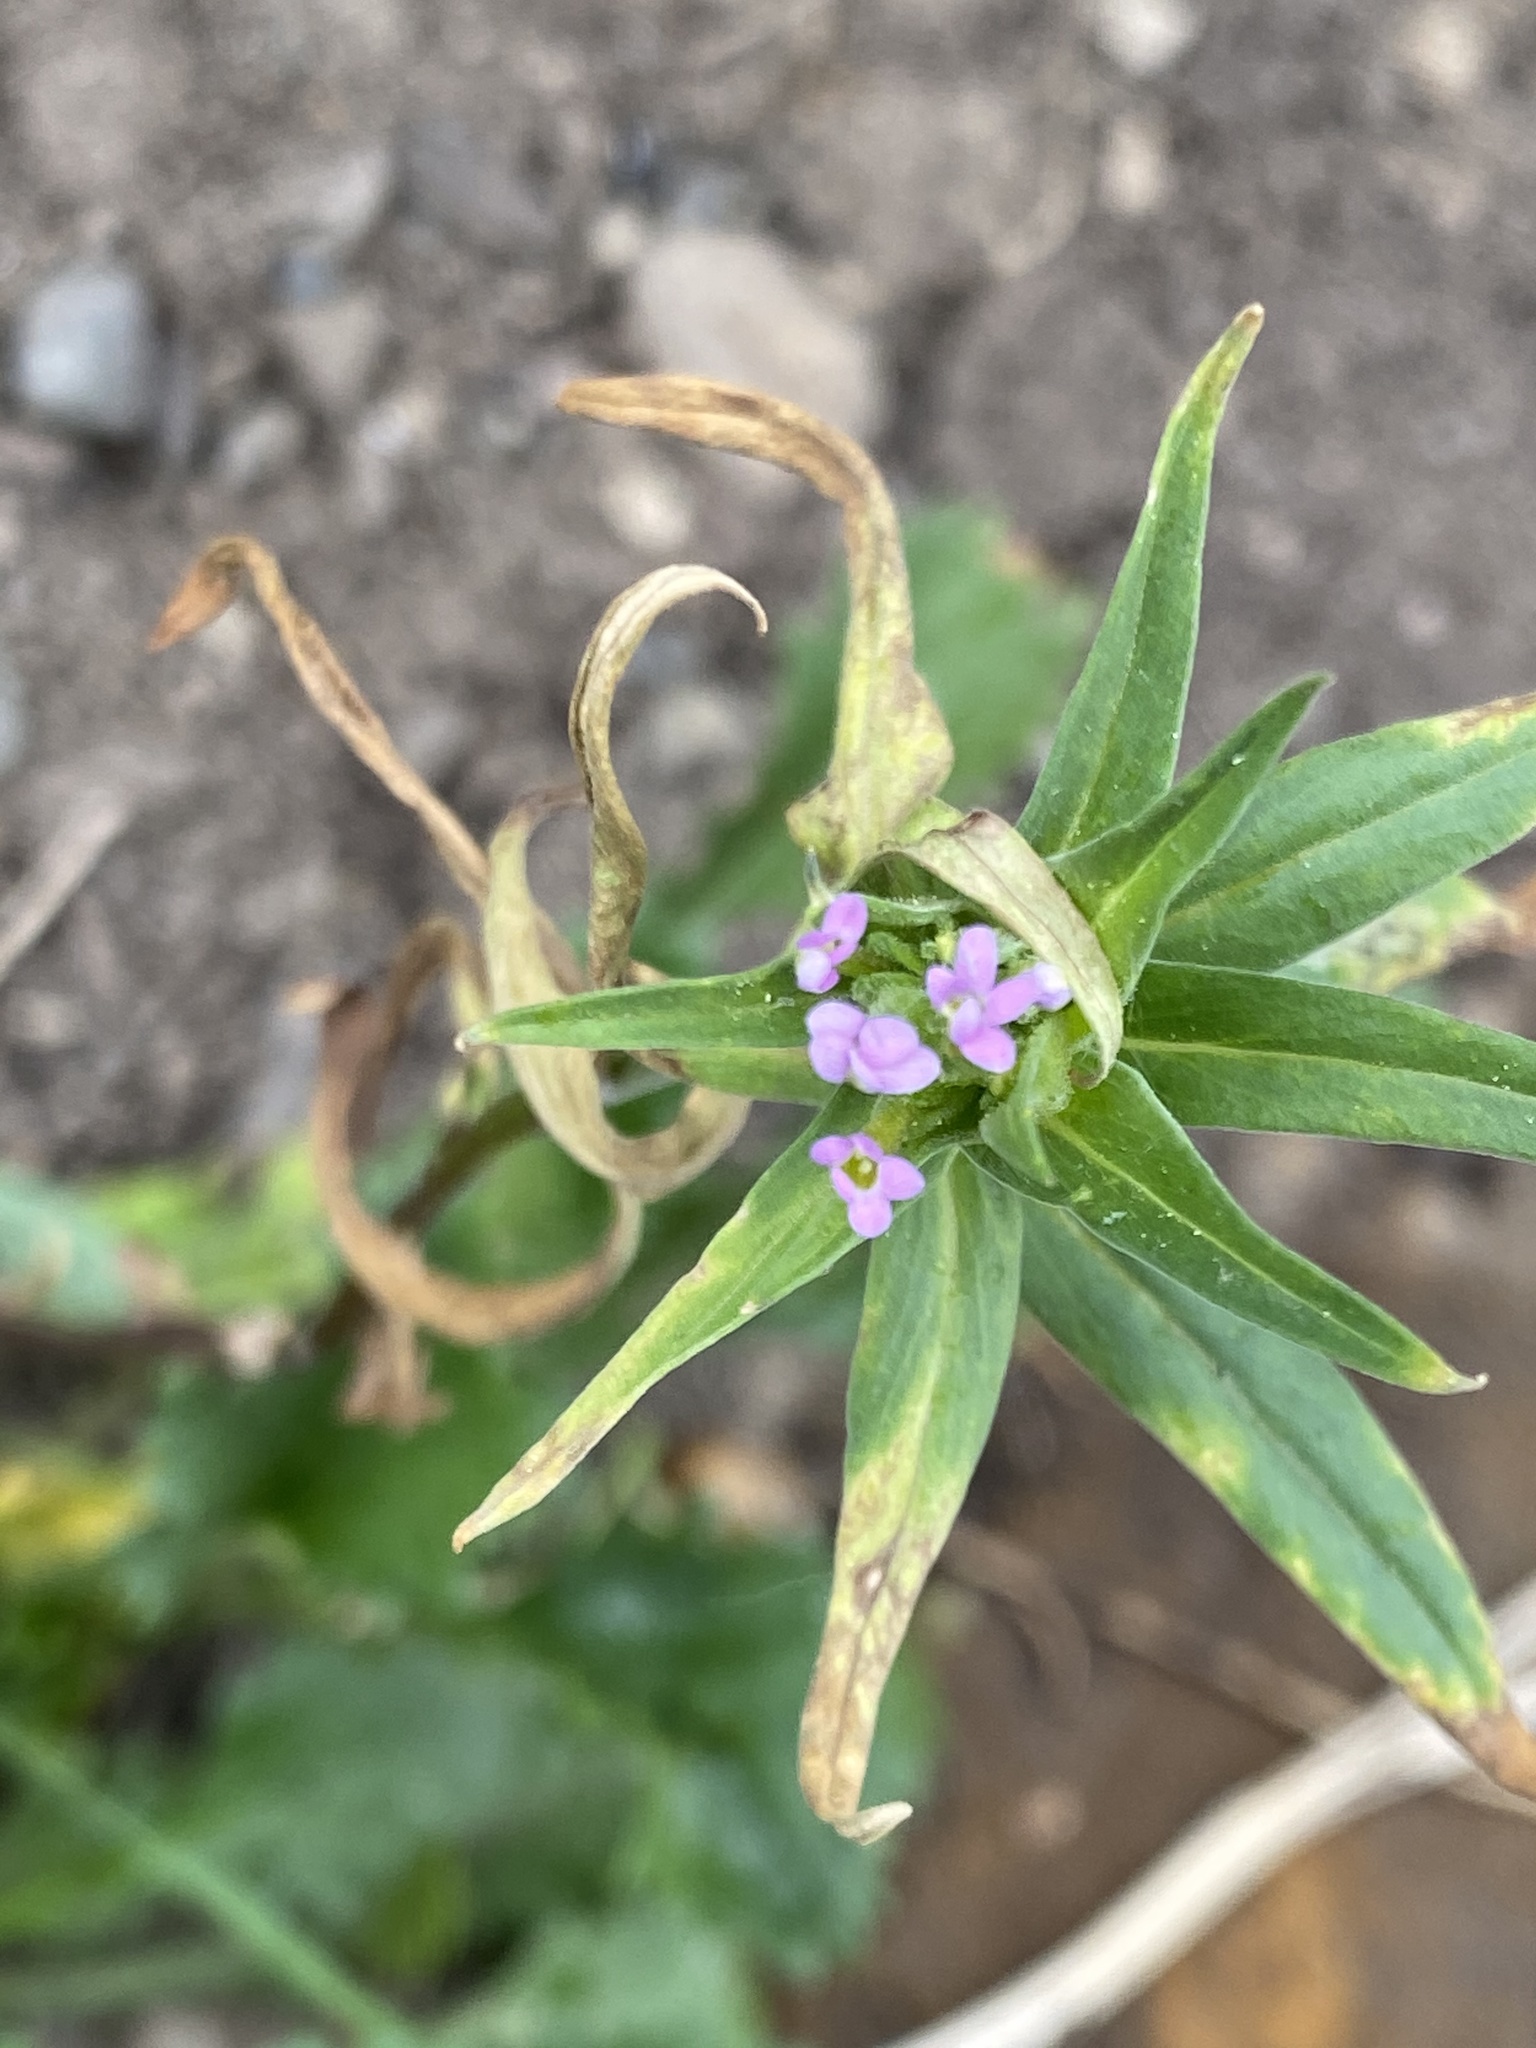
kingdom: Plantae
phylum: Tracheophyta
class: Magnoliopsida
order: Ericales
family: Polemoniaceae
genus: Collomia
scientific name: Collomia linearis
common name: Tiny trumpet
